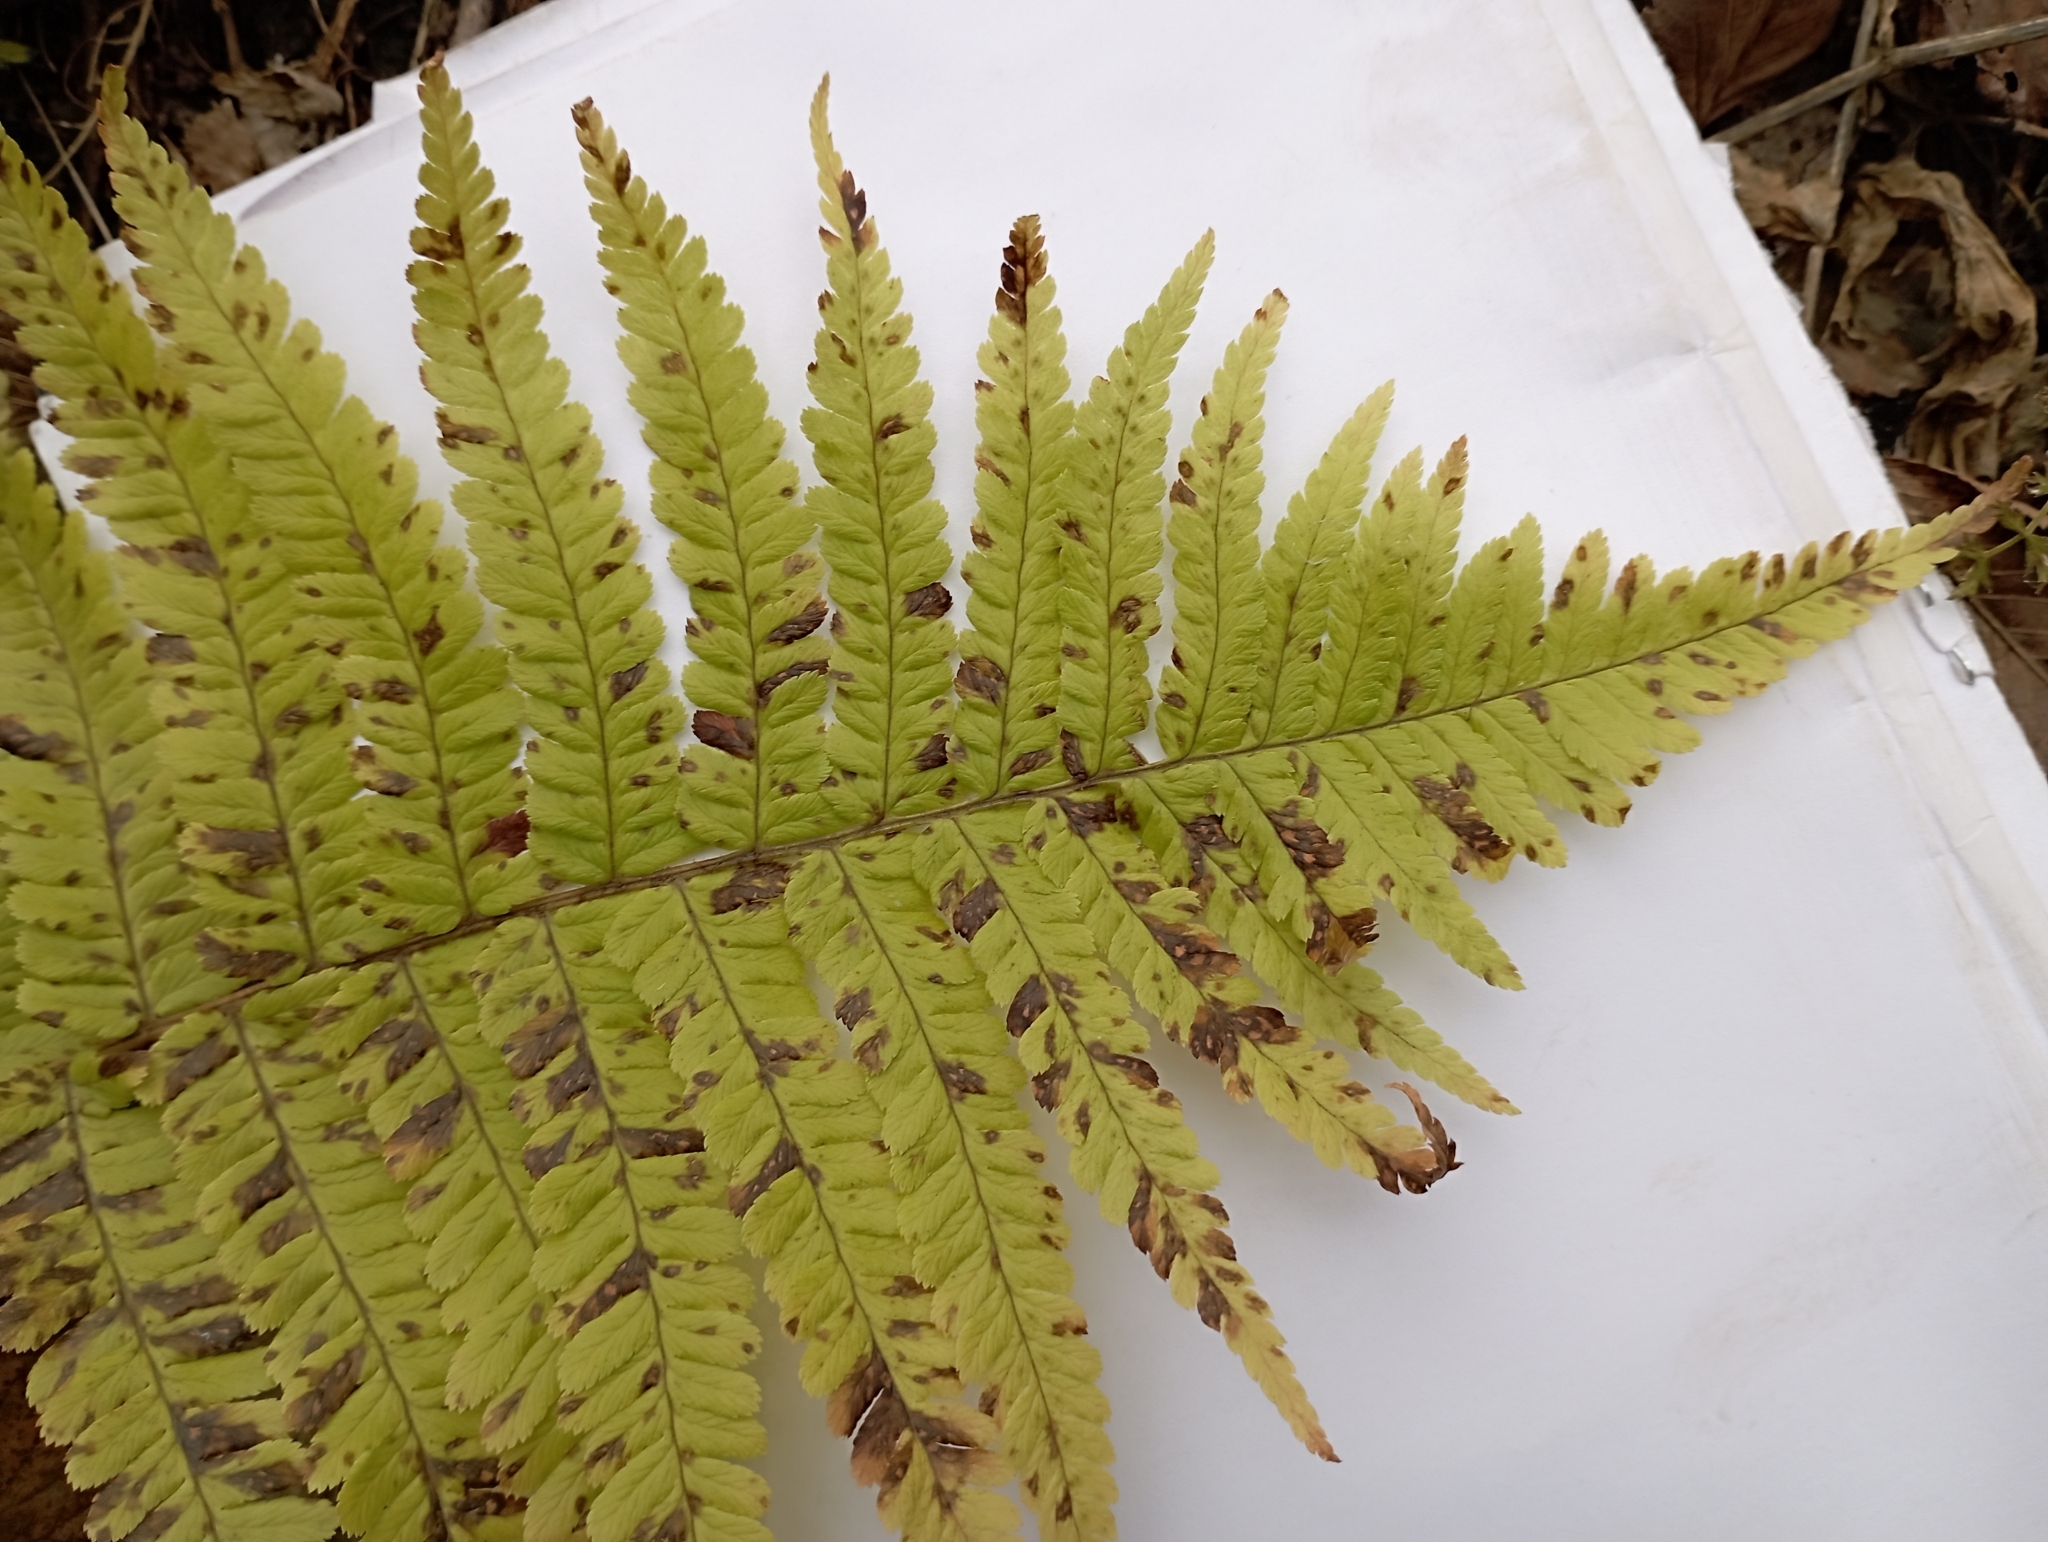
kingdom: Plantae
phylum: Tracheophyta
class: Polypodiopsida
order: Polypodiales
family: Dryopteridaceae
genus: Dryopteris
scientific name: Dryopteris filix-mas
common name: Male fern
